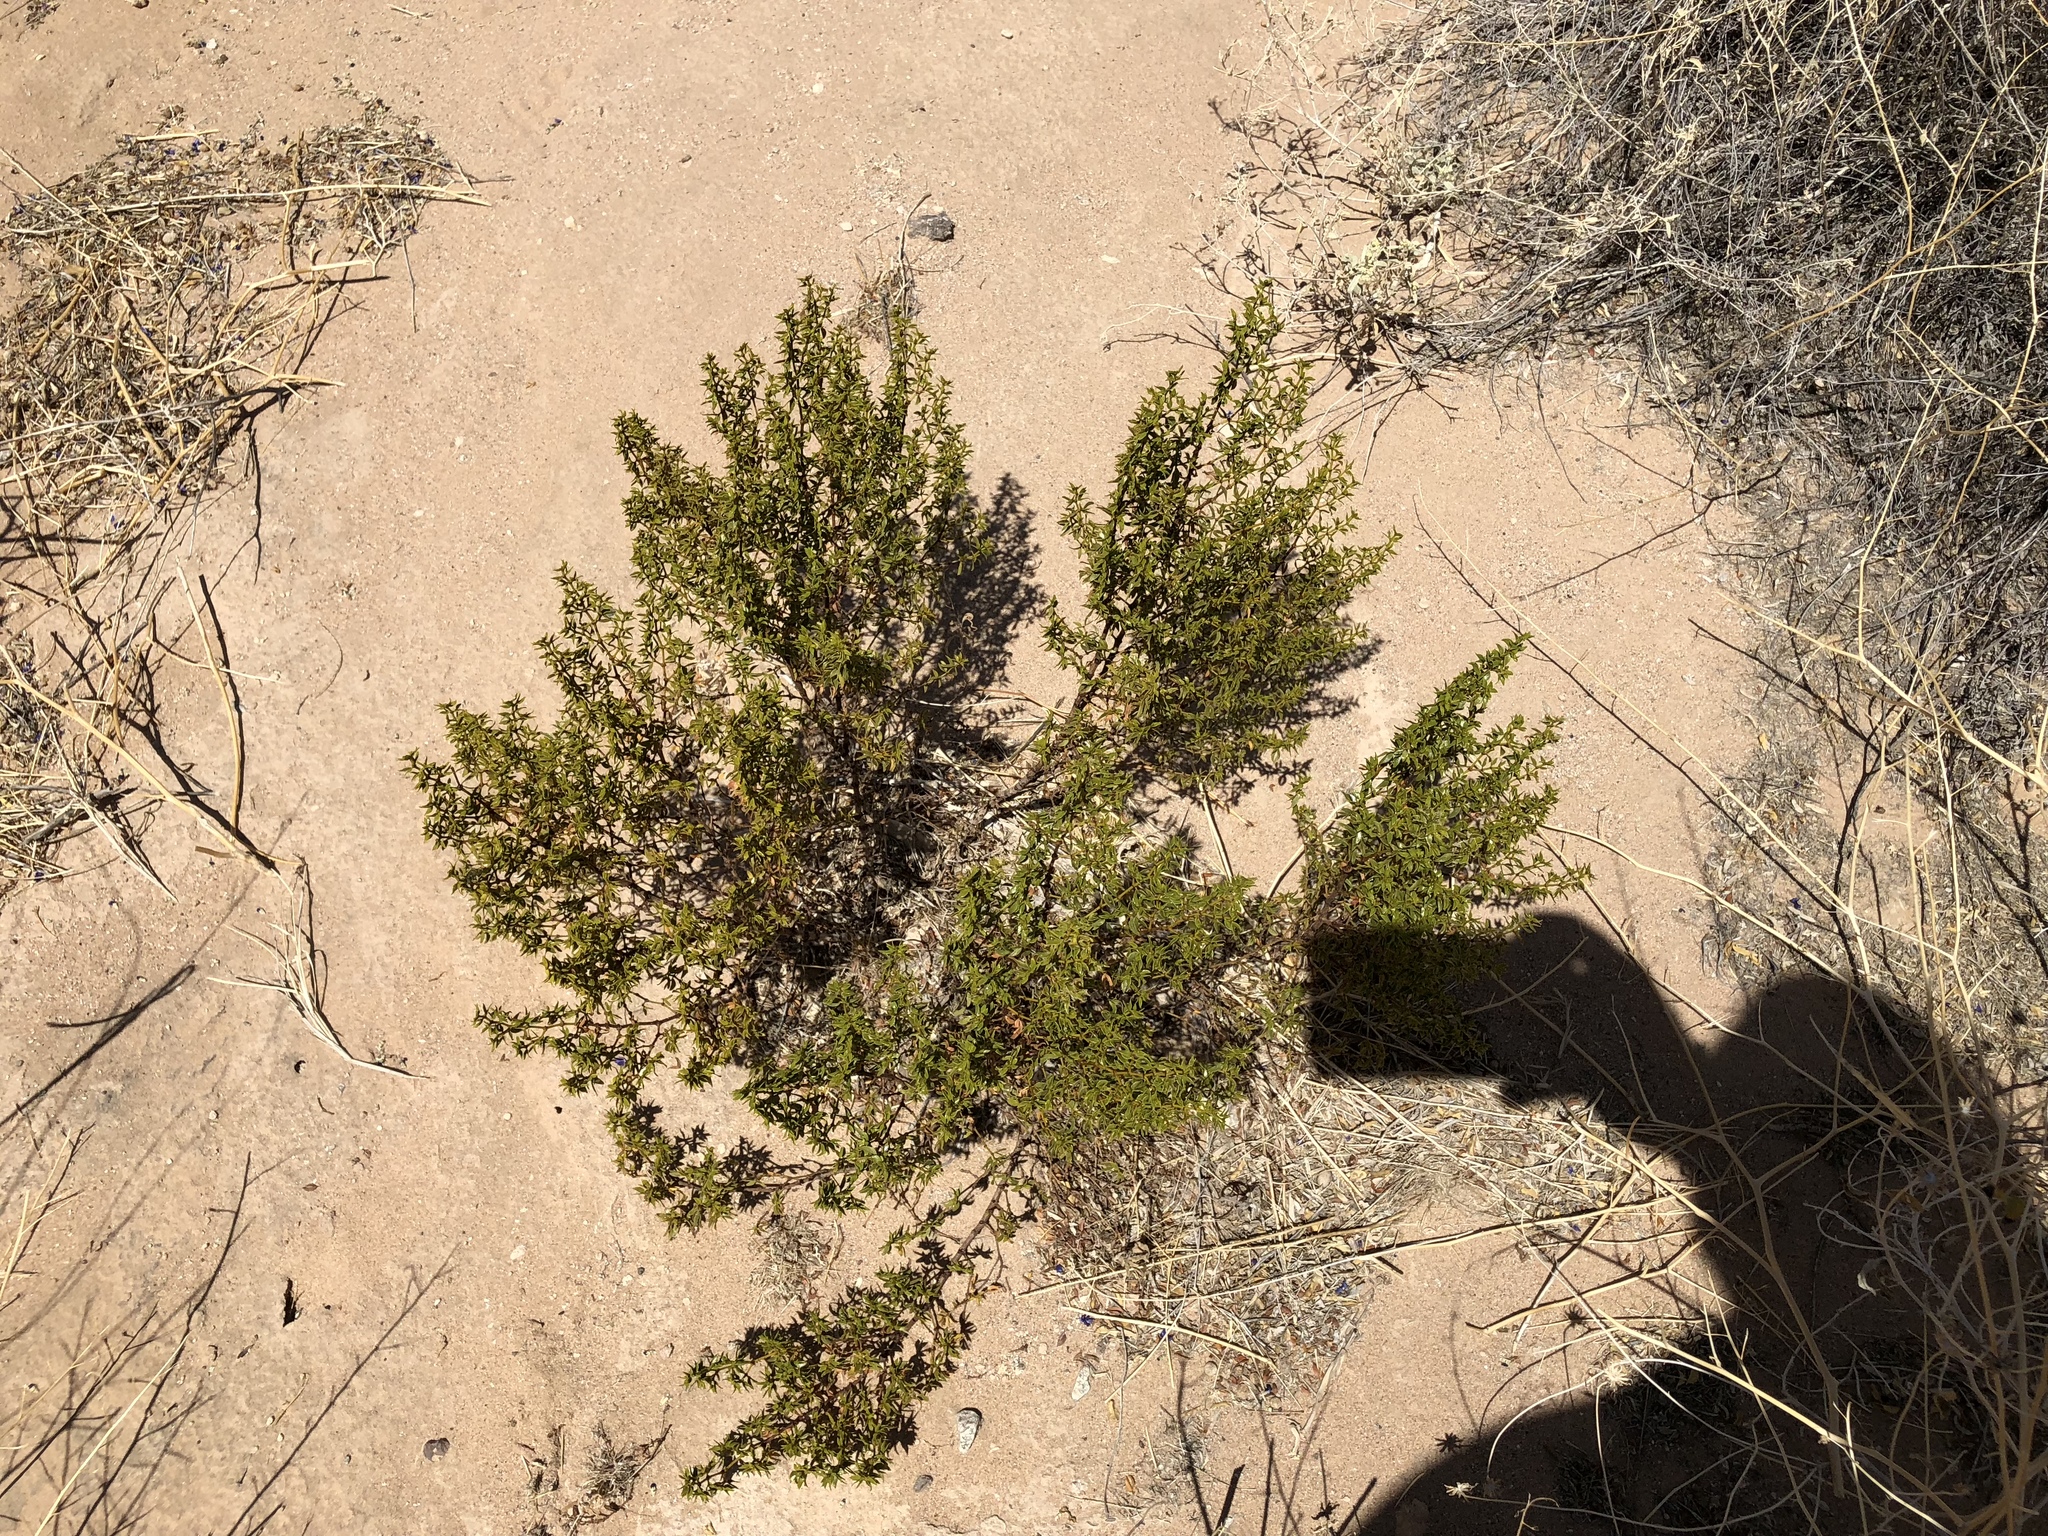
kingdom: Plantae
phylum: Tracheophyta
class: Magnoliopsida
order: Zygophyllales
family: Zygophyllaceae
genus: Larrea
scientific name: Larrea tridentata
